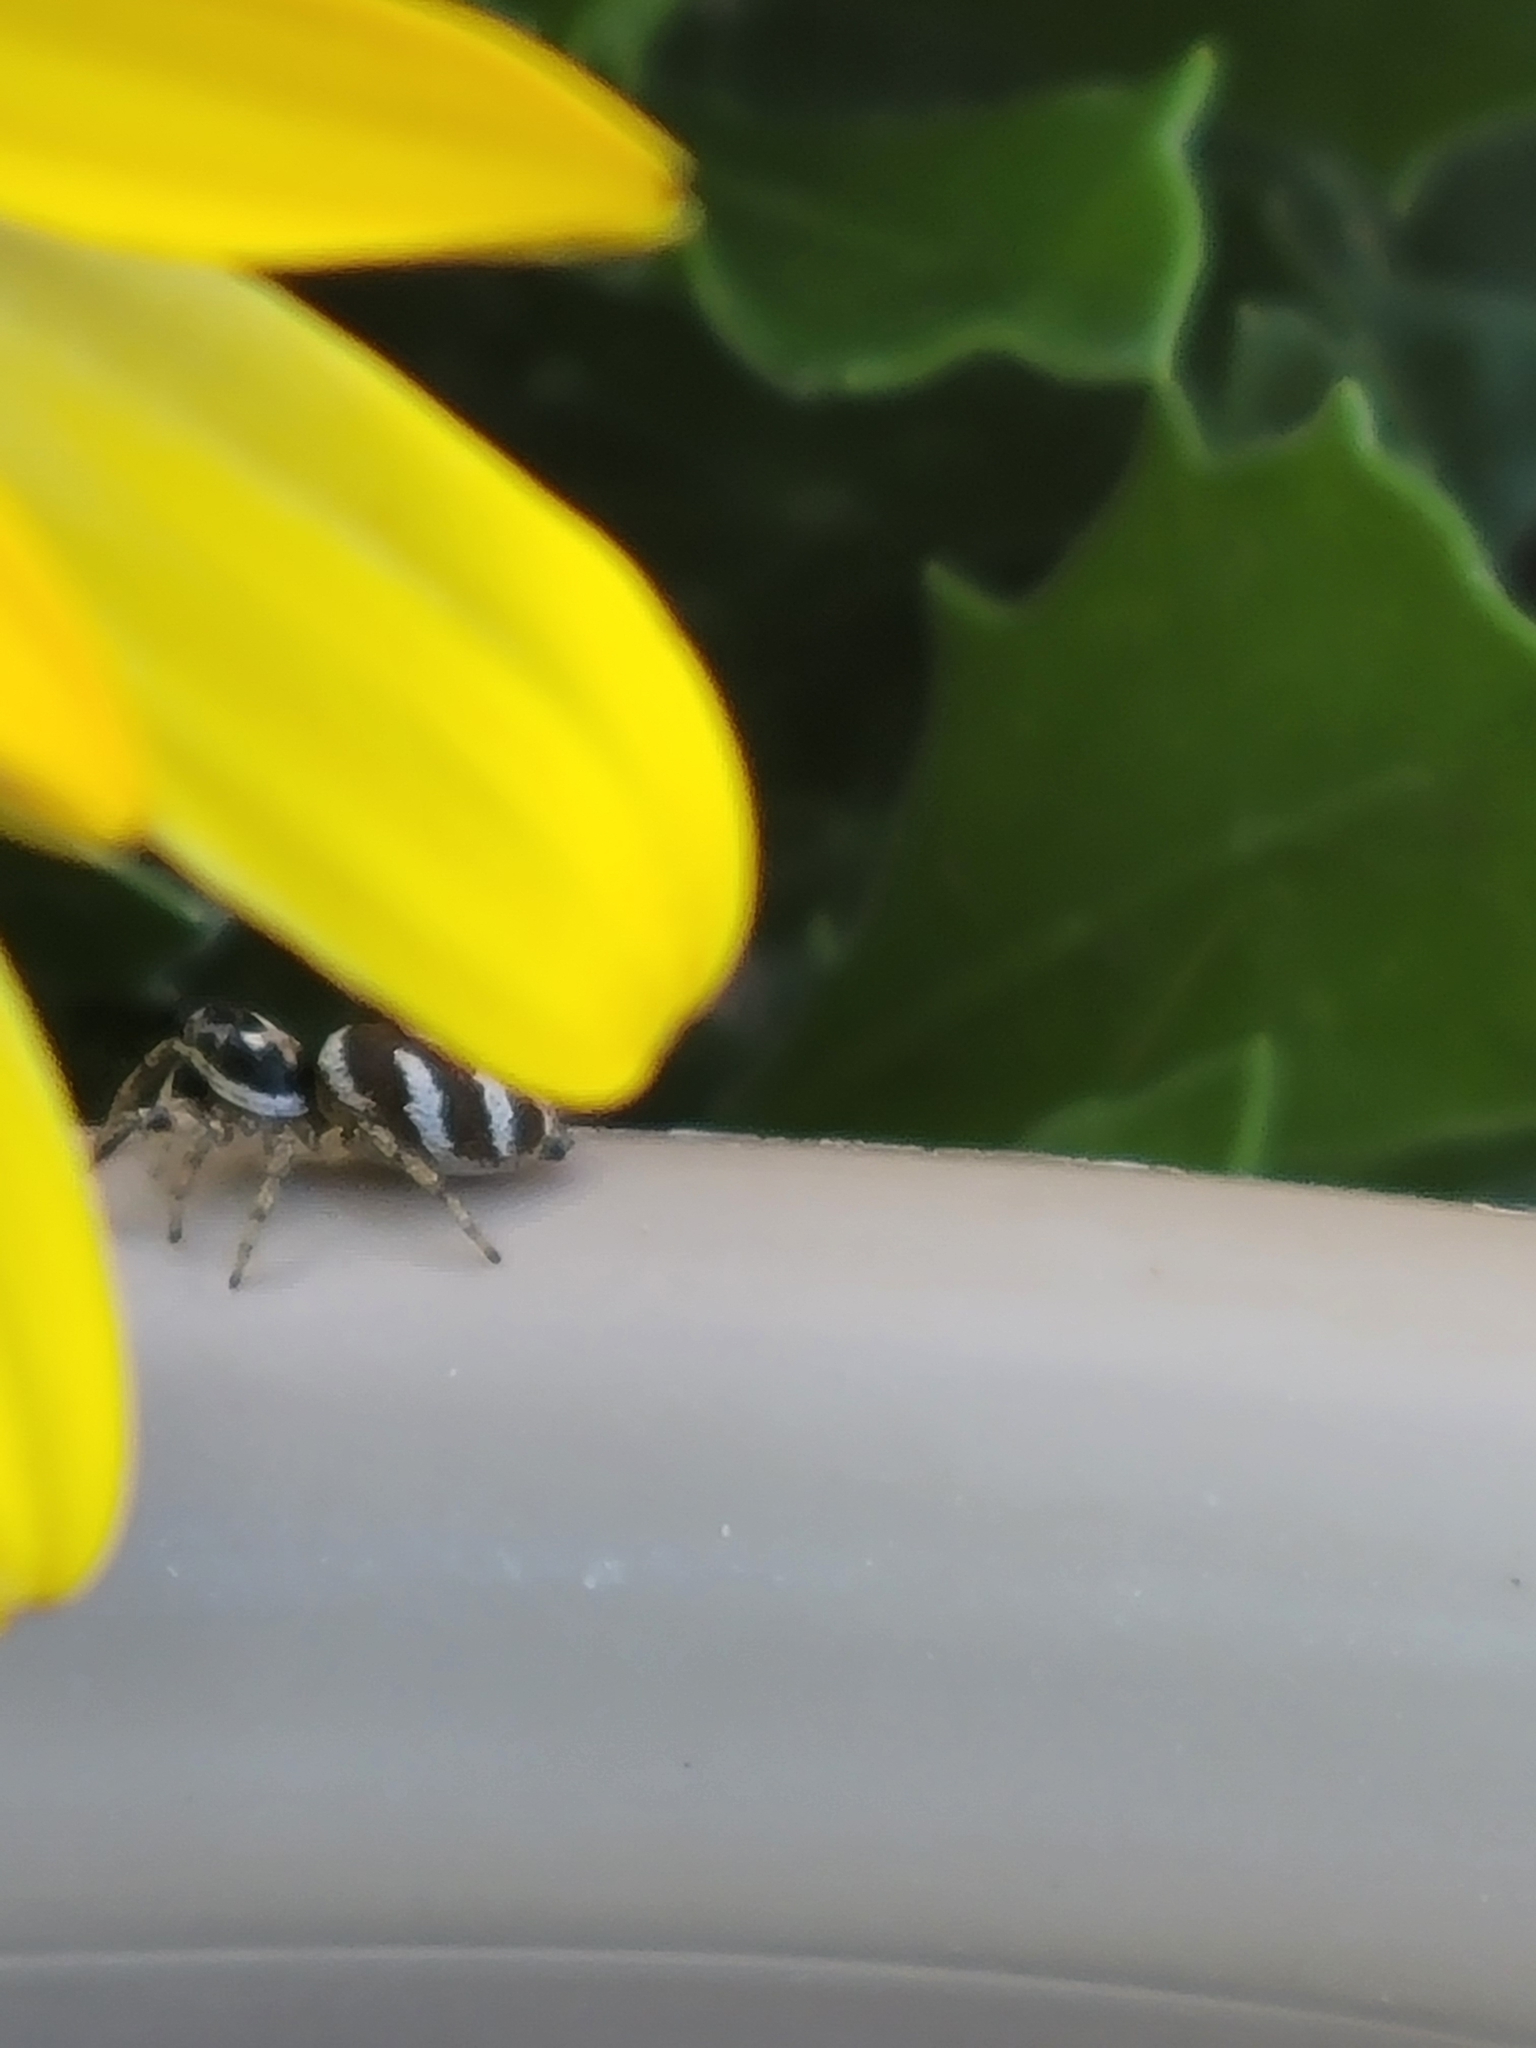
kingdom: Animalia
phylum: Arthropoda
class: Arachnida
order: Araneae
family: Salticidae
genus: Salticus
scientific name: Salticus scenicus
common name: Zebra jumper
